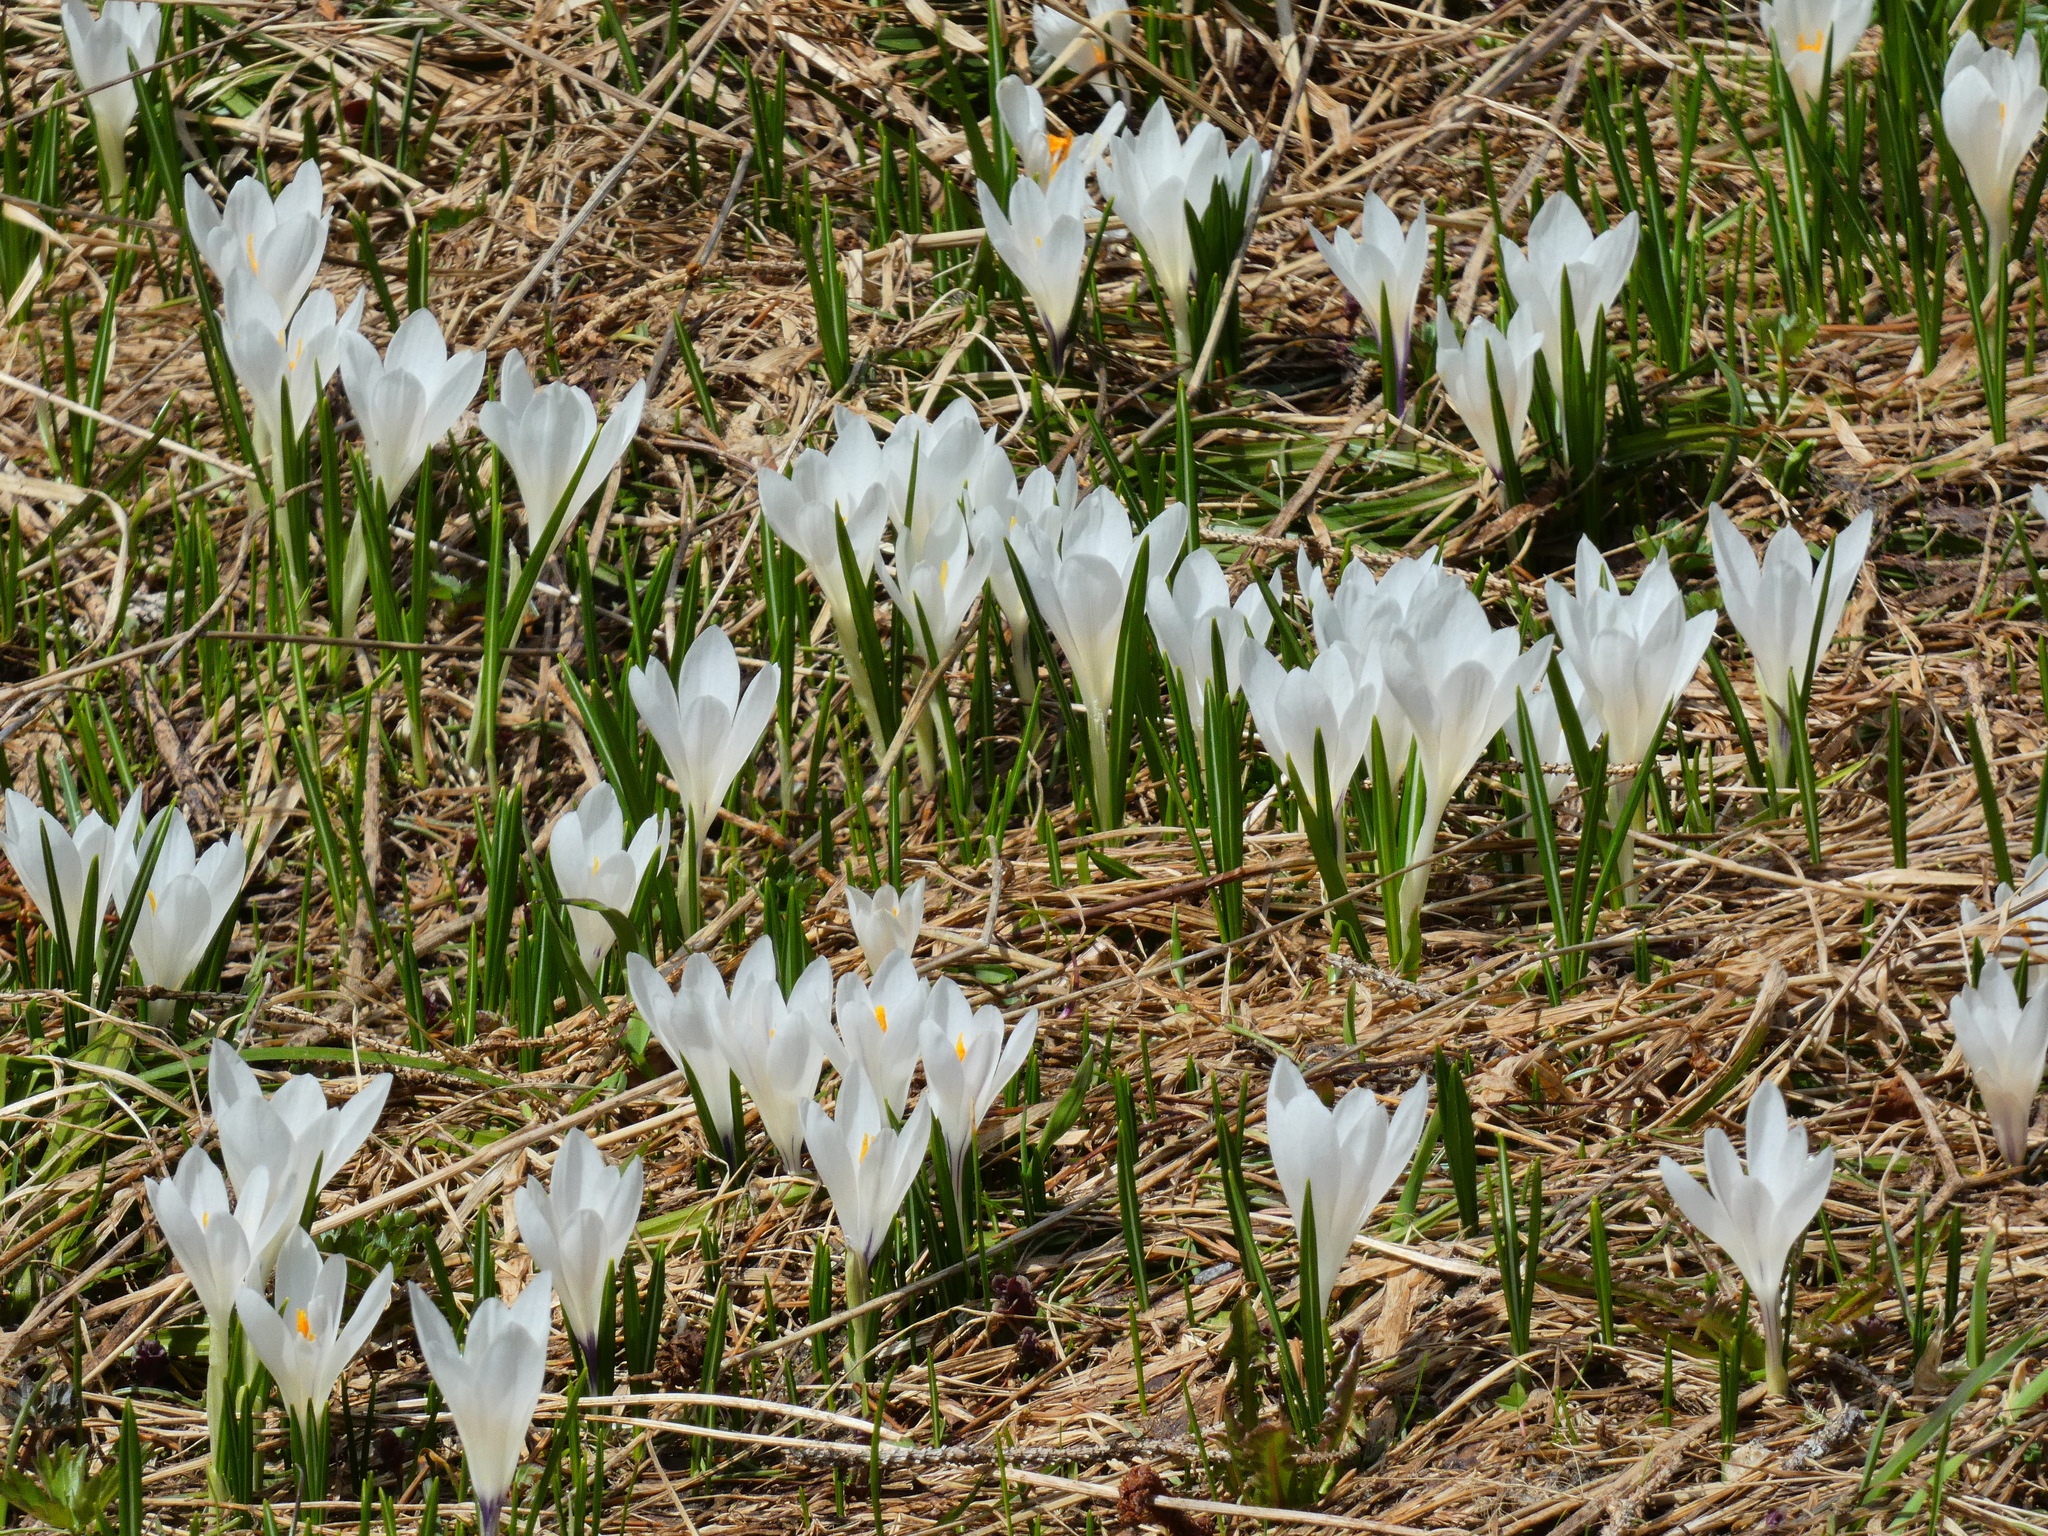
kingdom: Plantae
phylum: Tracheophyta
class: Liliopsida
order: Asparagales
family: Iridaceae
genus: Crocus
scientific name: Crocus vernus
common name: Spring crocus
